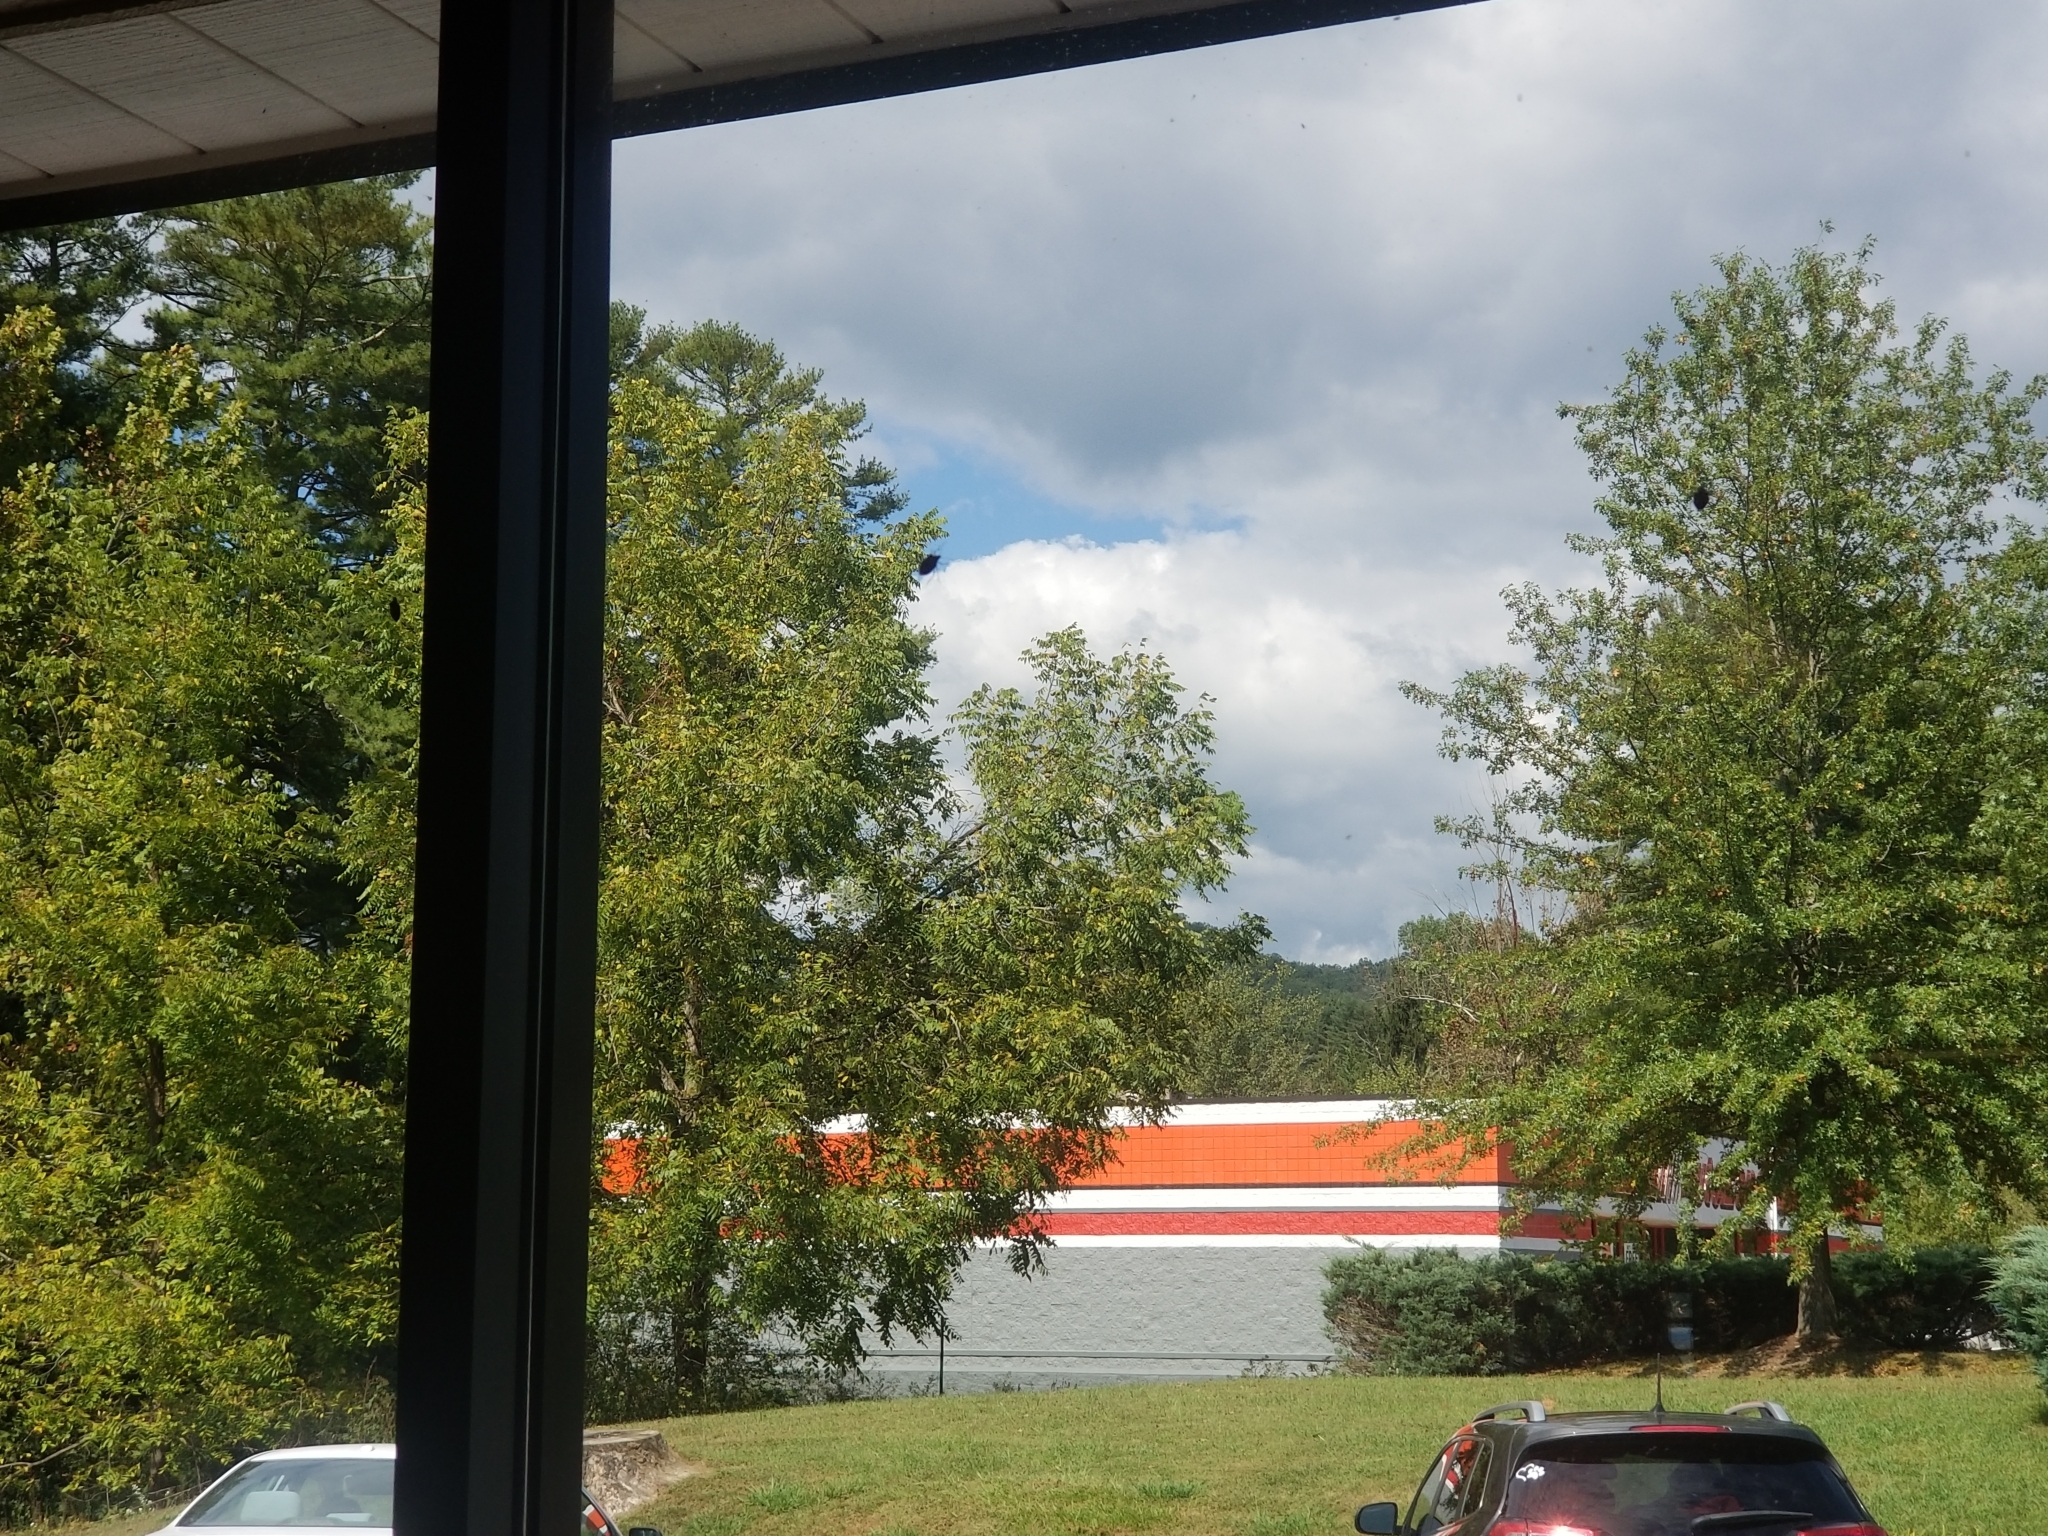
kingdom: Animalia
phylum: Arthropoda
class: Insecta
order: Hemiptera
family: Pentatomidae
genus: Halyomorpha
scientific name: Halyomorpha halys
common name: Brown marmorated stink bug
